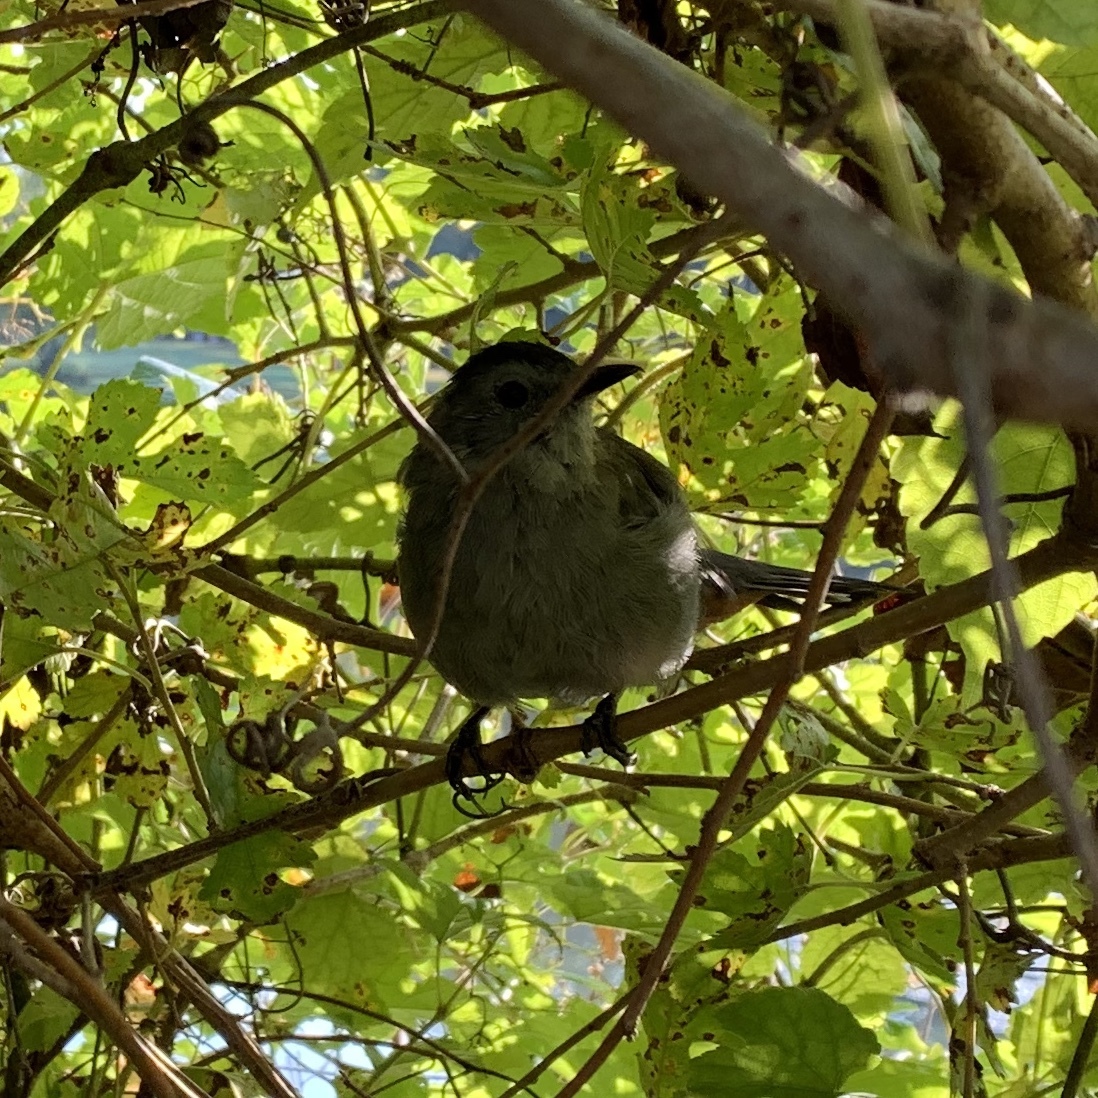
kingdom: Animalia
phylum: Chordata
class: Aves
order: Passeriformes
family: Mimidae
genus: Dumetella
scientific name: Dumetella carolinensis
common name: Gray catbird
